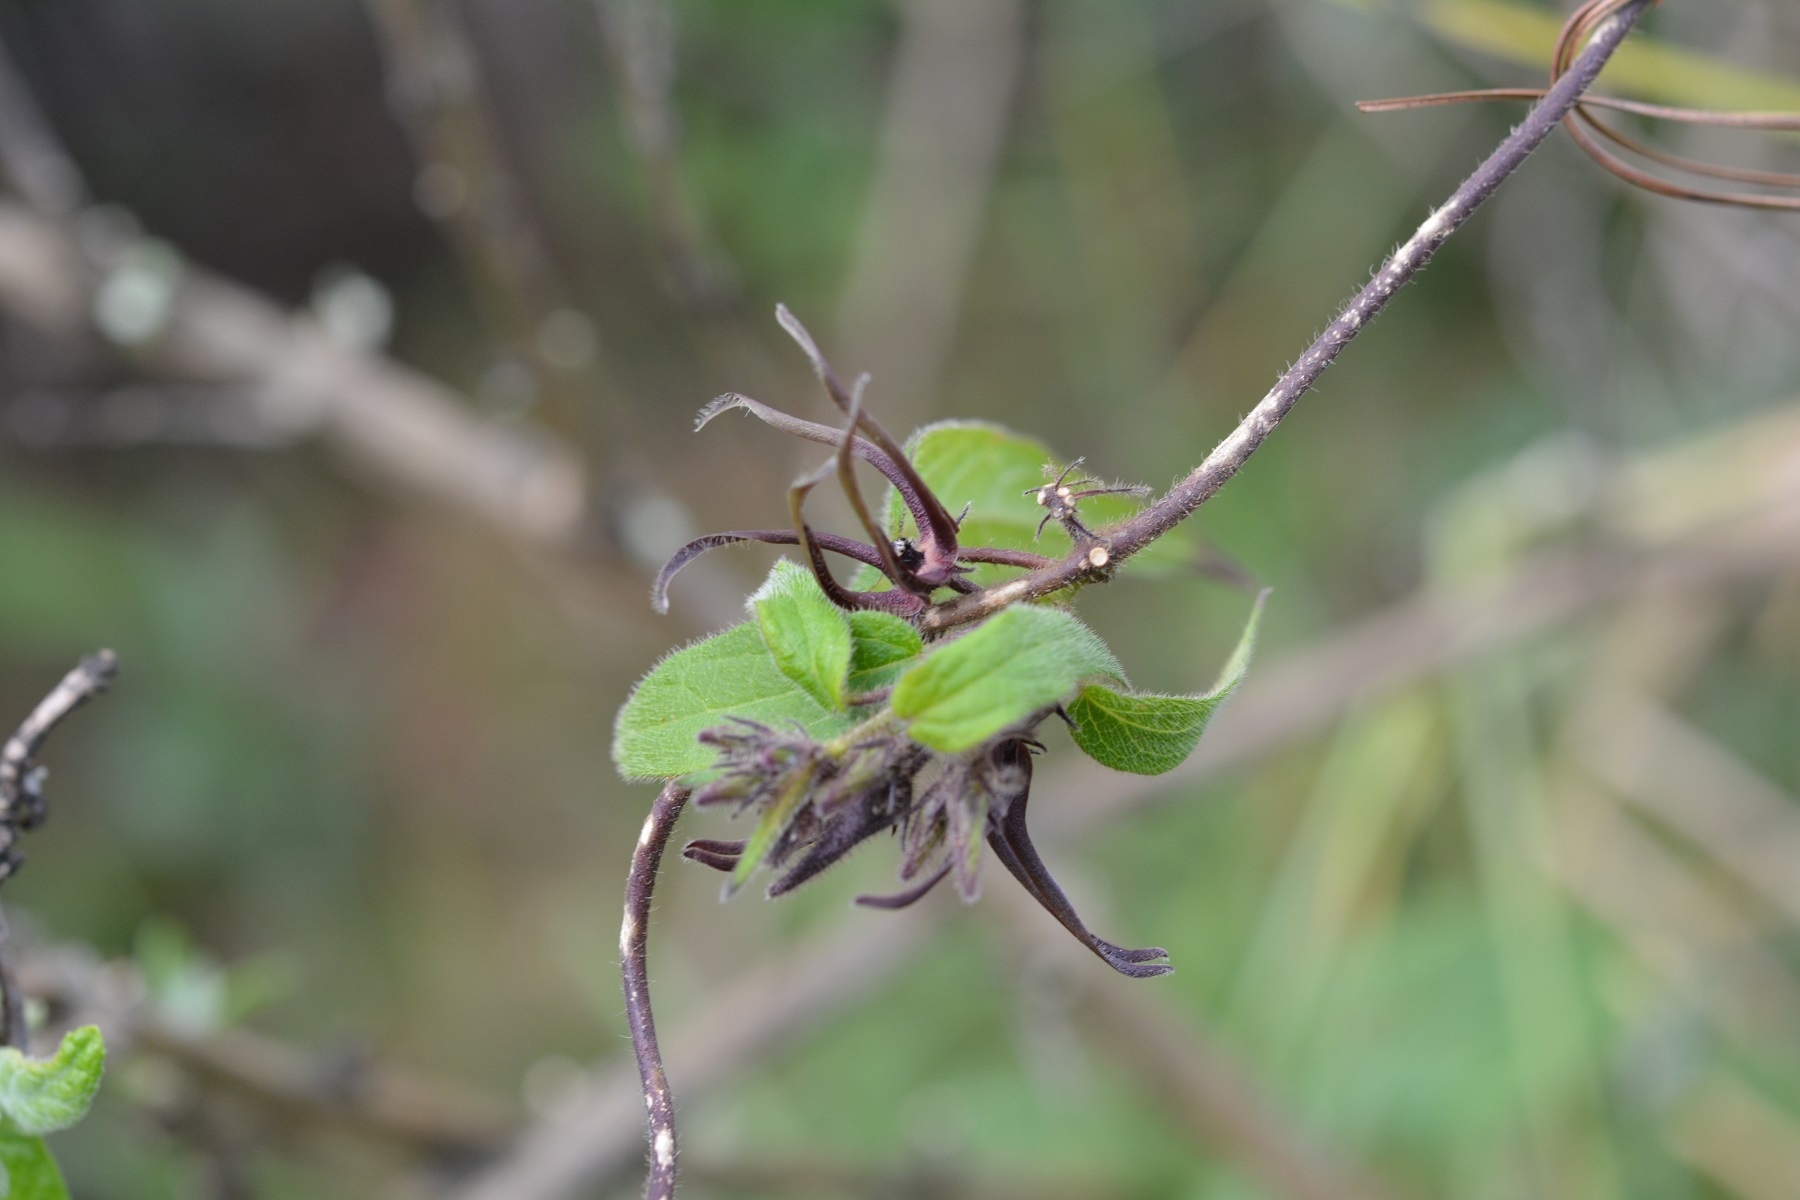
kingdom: Plantae
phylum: Tracheophyta
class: Magnoliopsida
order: Gentianales
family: Apocynaceae
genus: Matelea
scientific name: Matelea medusae
